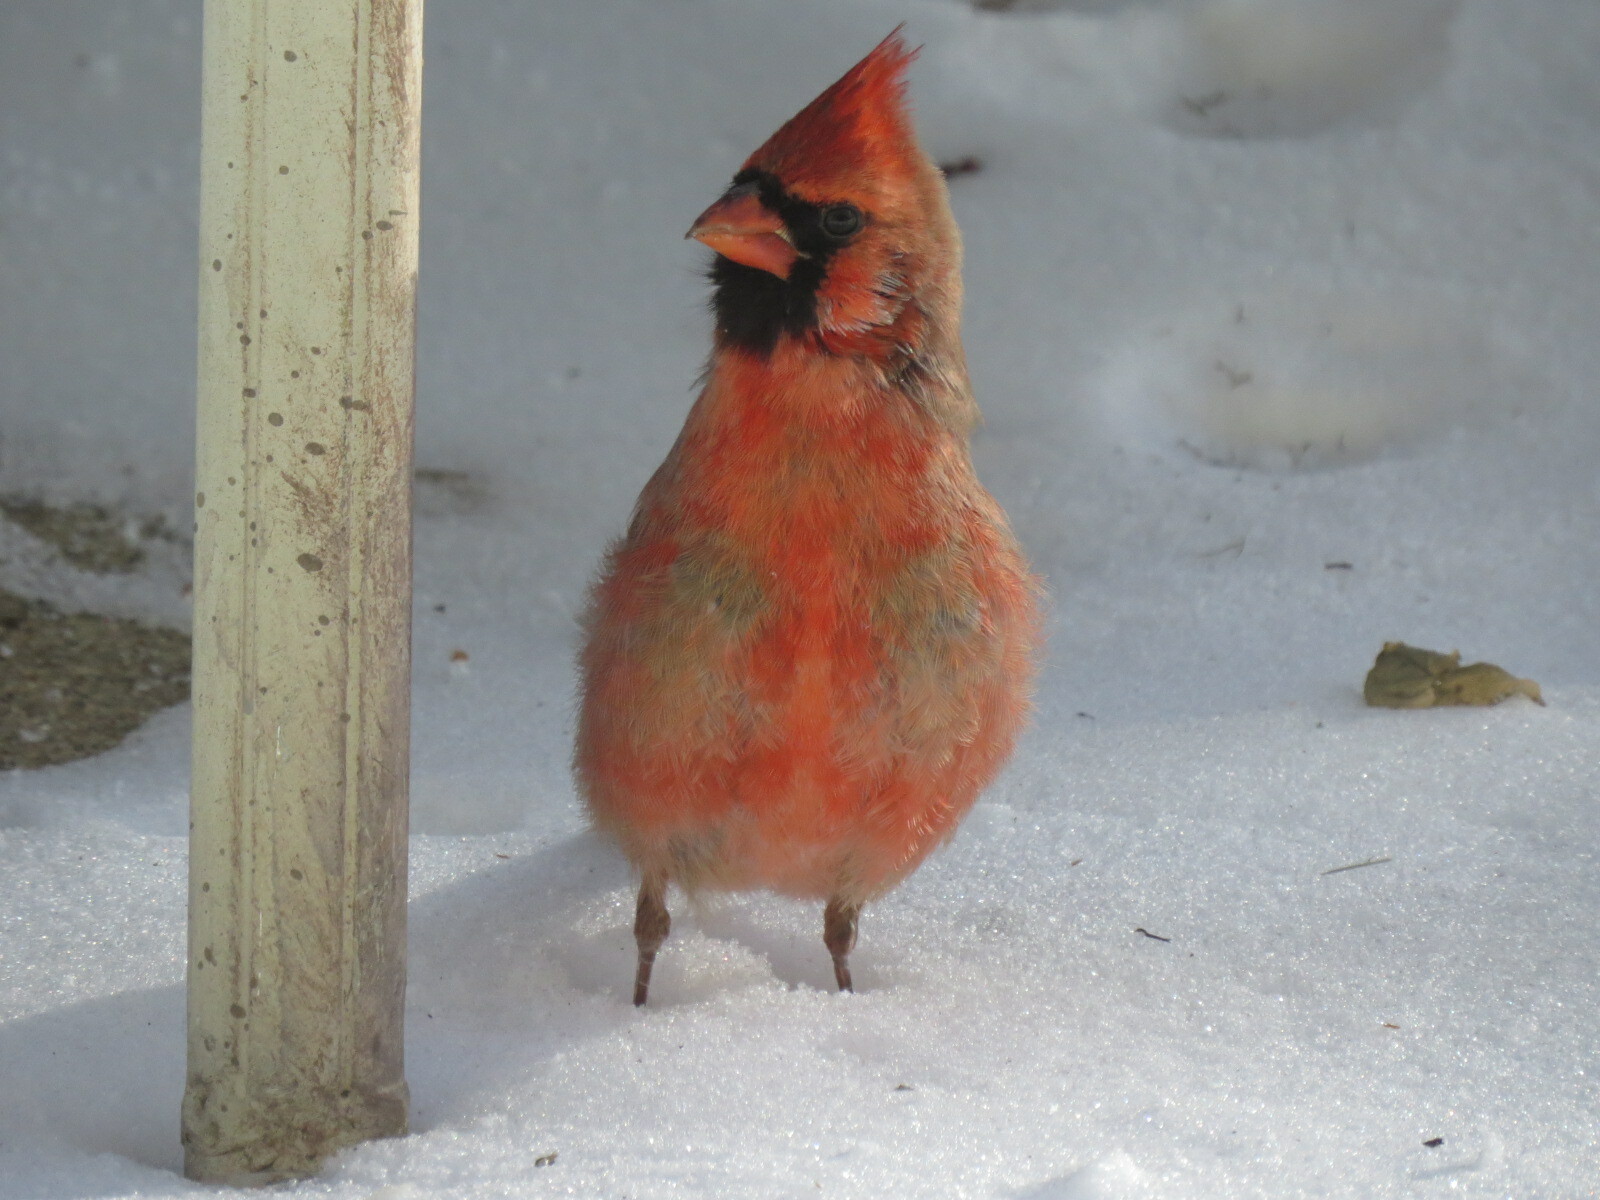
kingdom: Animalia
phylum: Chordata
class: Aves
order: Passeriformes
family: Cardinalidae
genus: Cardinalis
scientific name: Cardinalis cardinalis
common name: Northern cardinal
